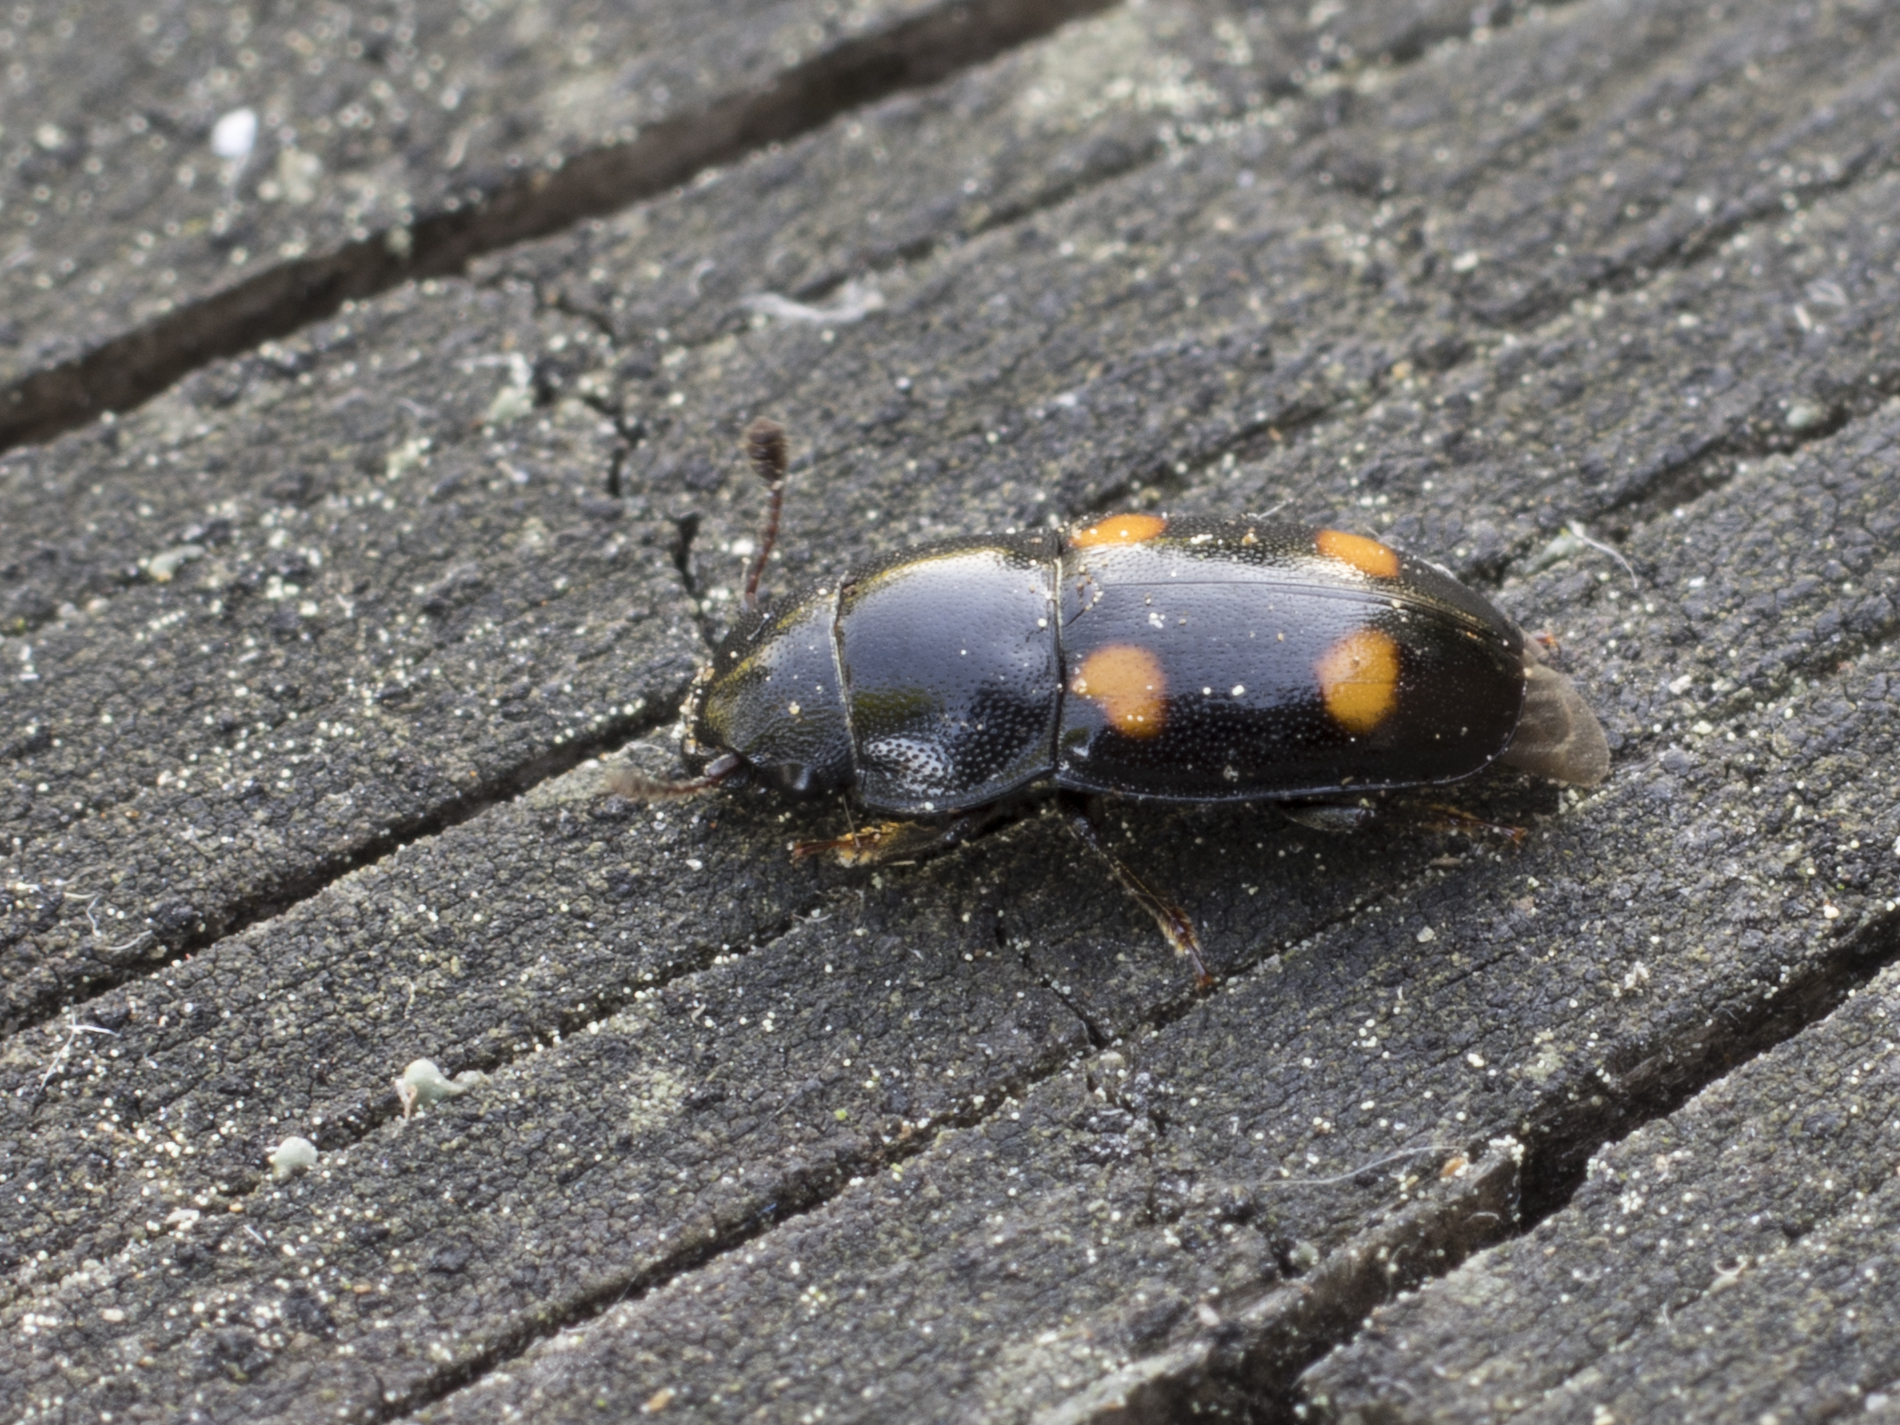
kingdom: Animalia
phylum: Arthropoda
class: Insecta
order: Coleoptera
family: Nitidulidae
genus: Glischrochilus
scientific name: Glischrochilus hortensis
